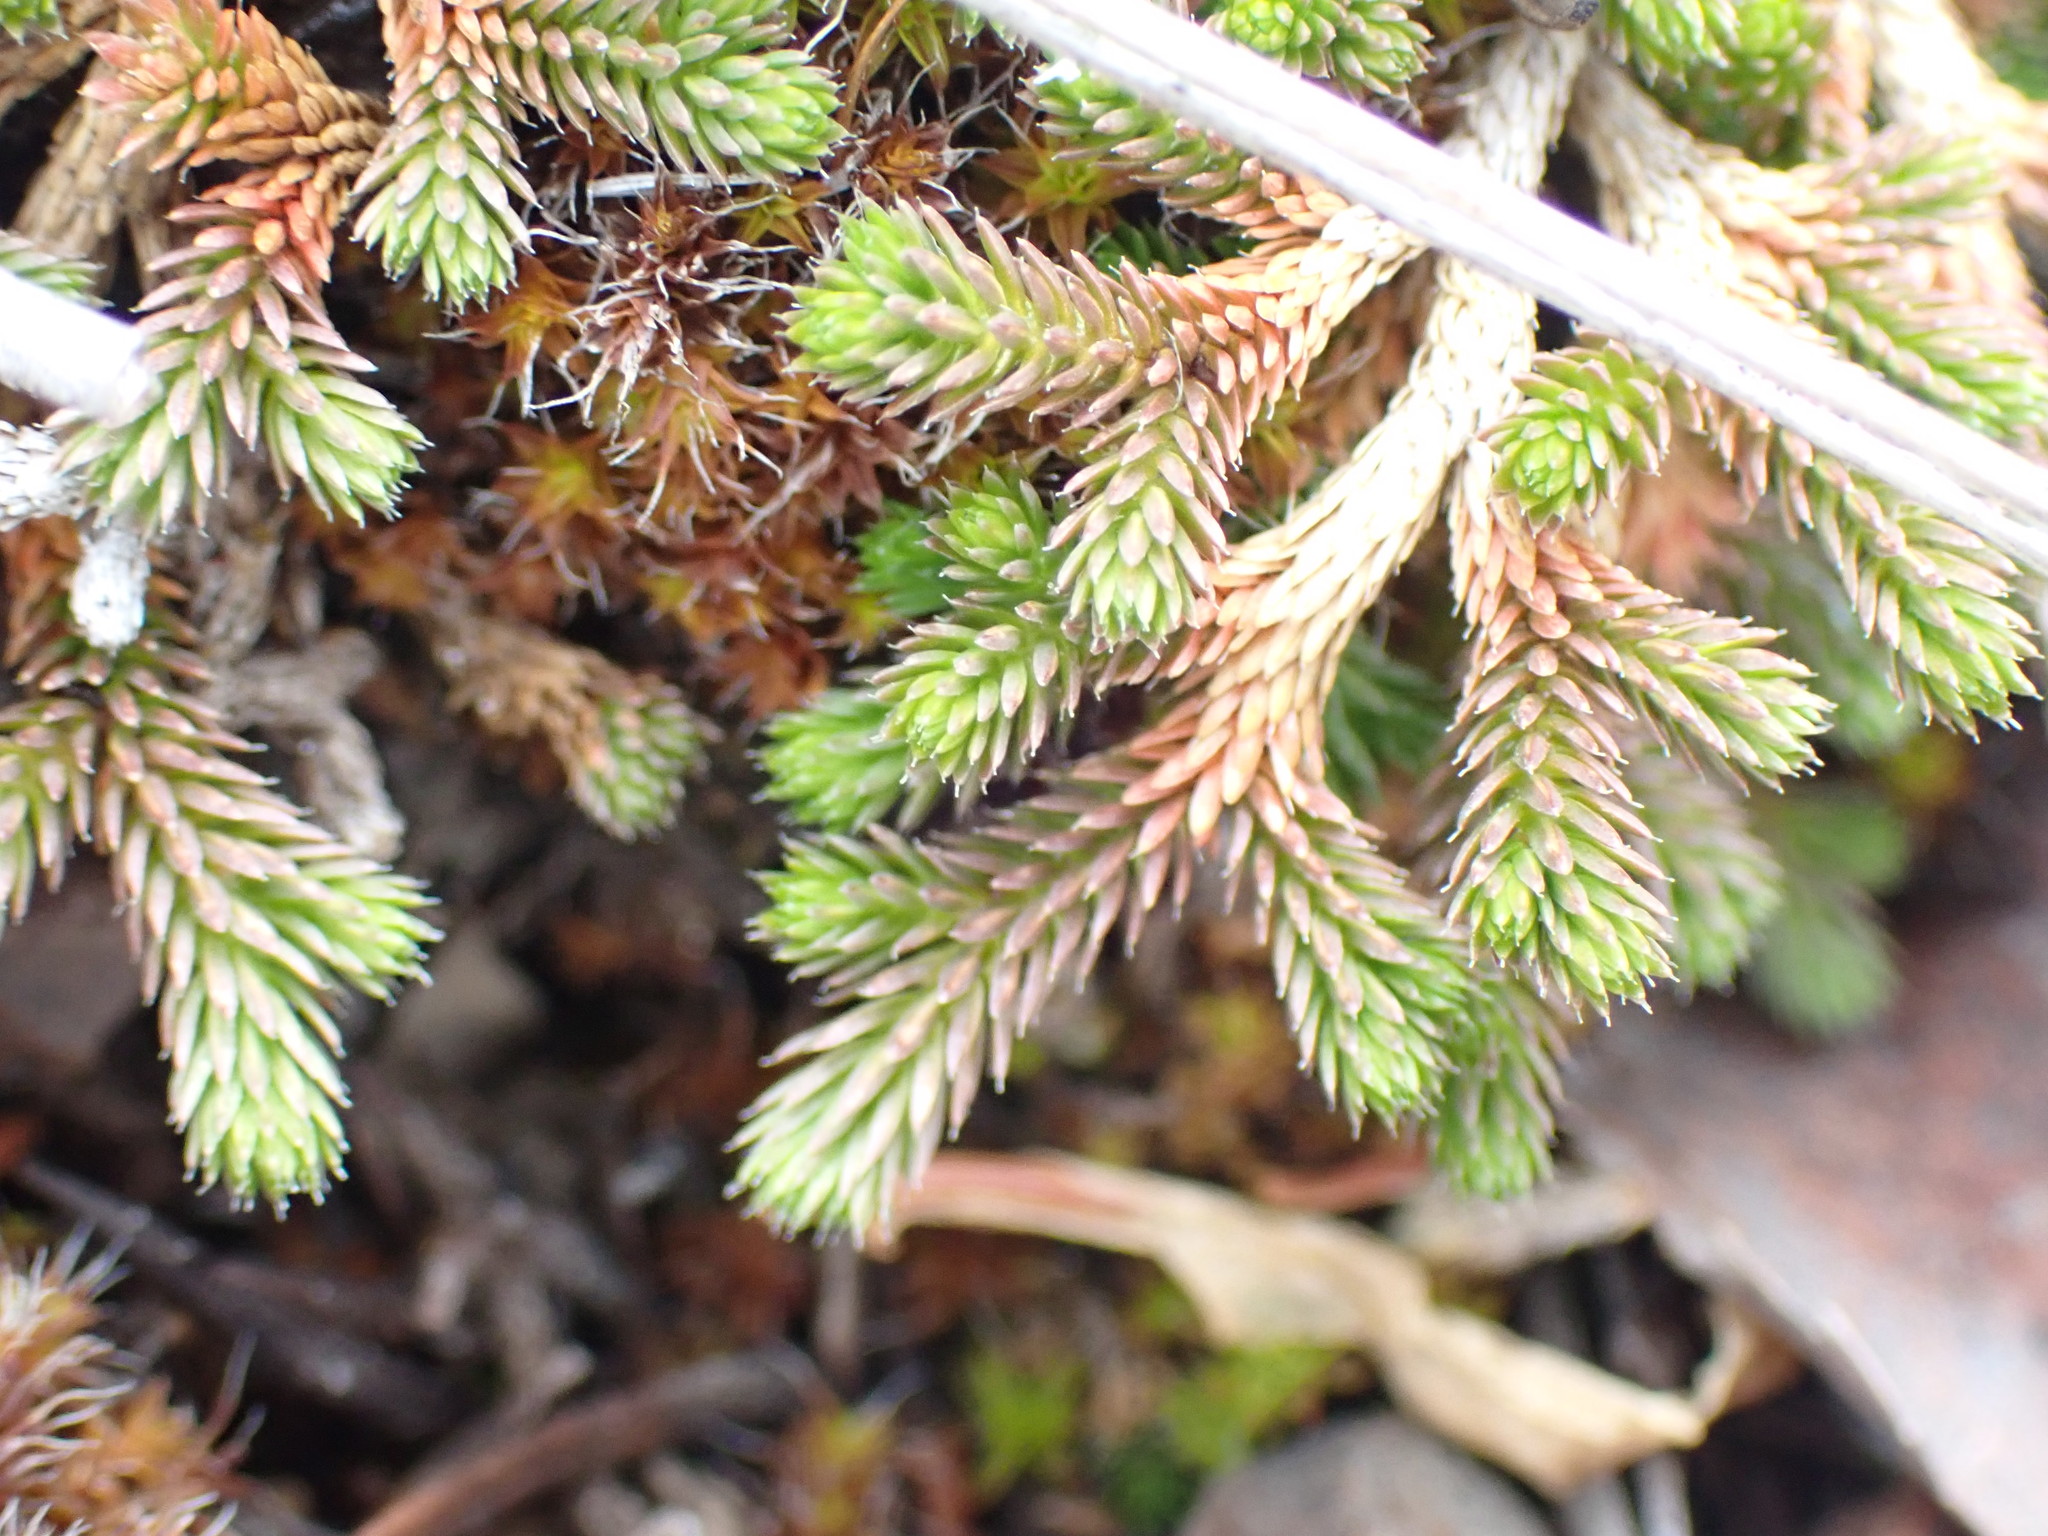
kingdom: Plantae
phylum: Tracheophyta
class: Lycopodiopsida
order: Selaginellales
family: Selaginellaceae
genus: Selaginella
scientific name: Selaginella wallacei
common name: Wallace's selaginella
